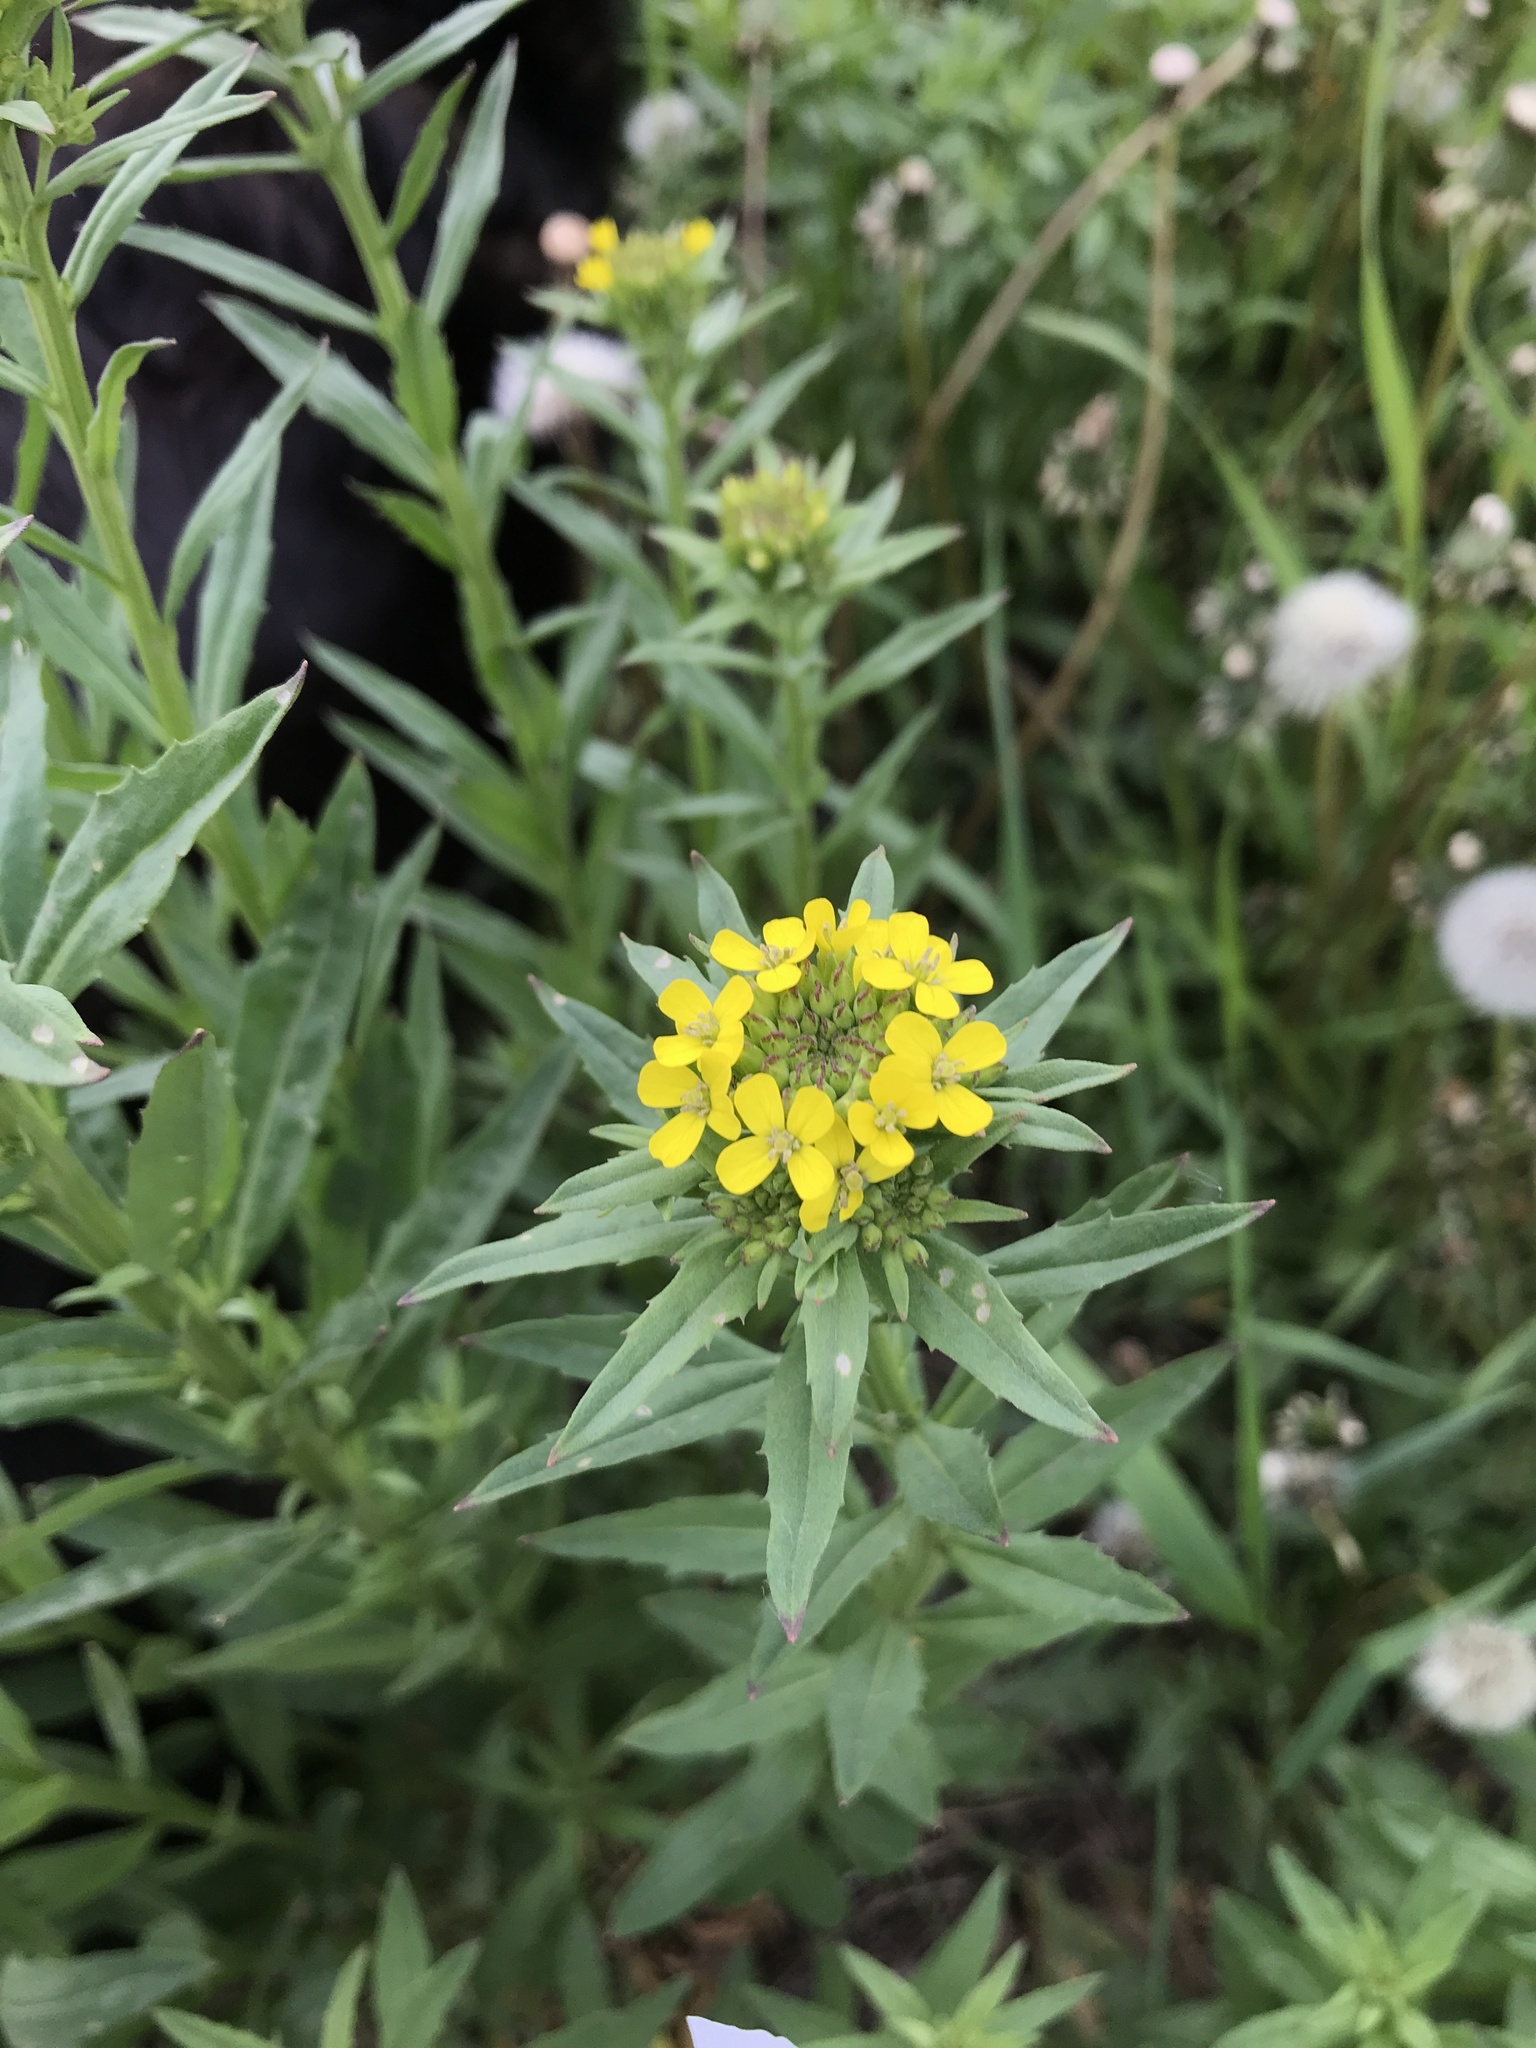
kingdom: Plantae
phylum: Tracheophyta
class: Magnoliopsida
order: Brassicales
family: Brassicaceae
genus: Erysimum
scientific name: Erysimum cheiranthoides
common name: Treacle mustard
